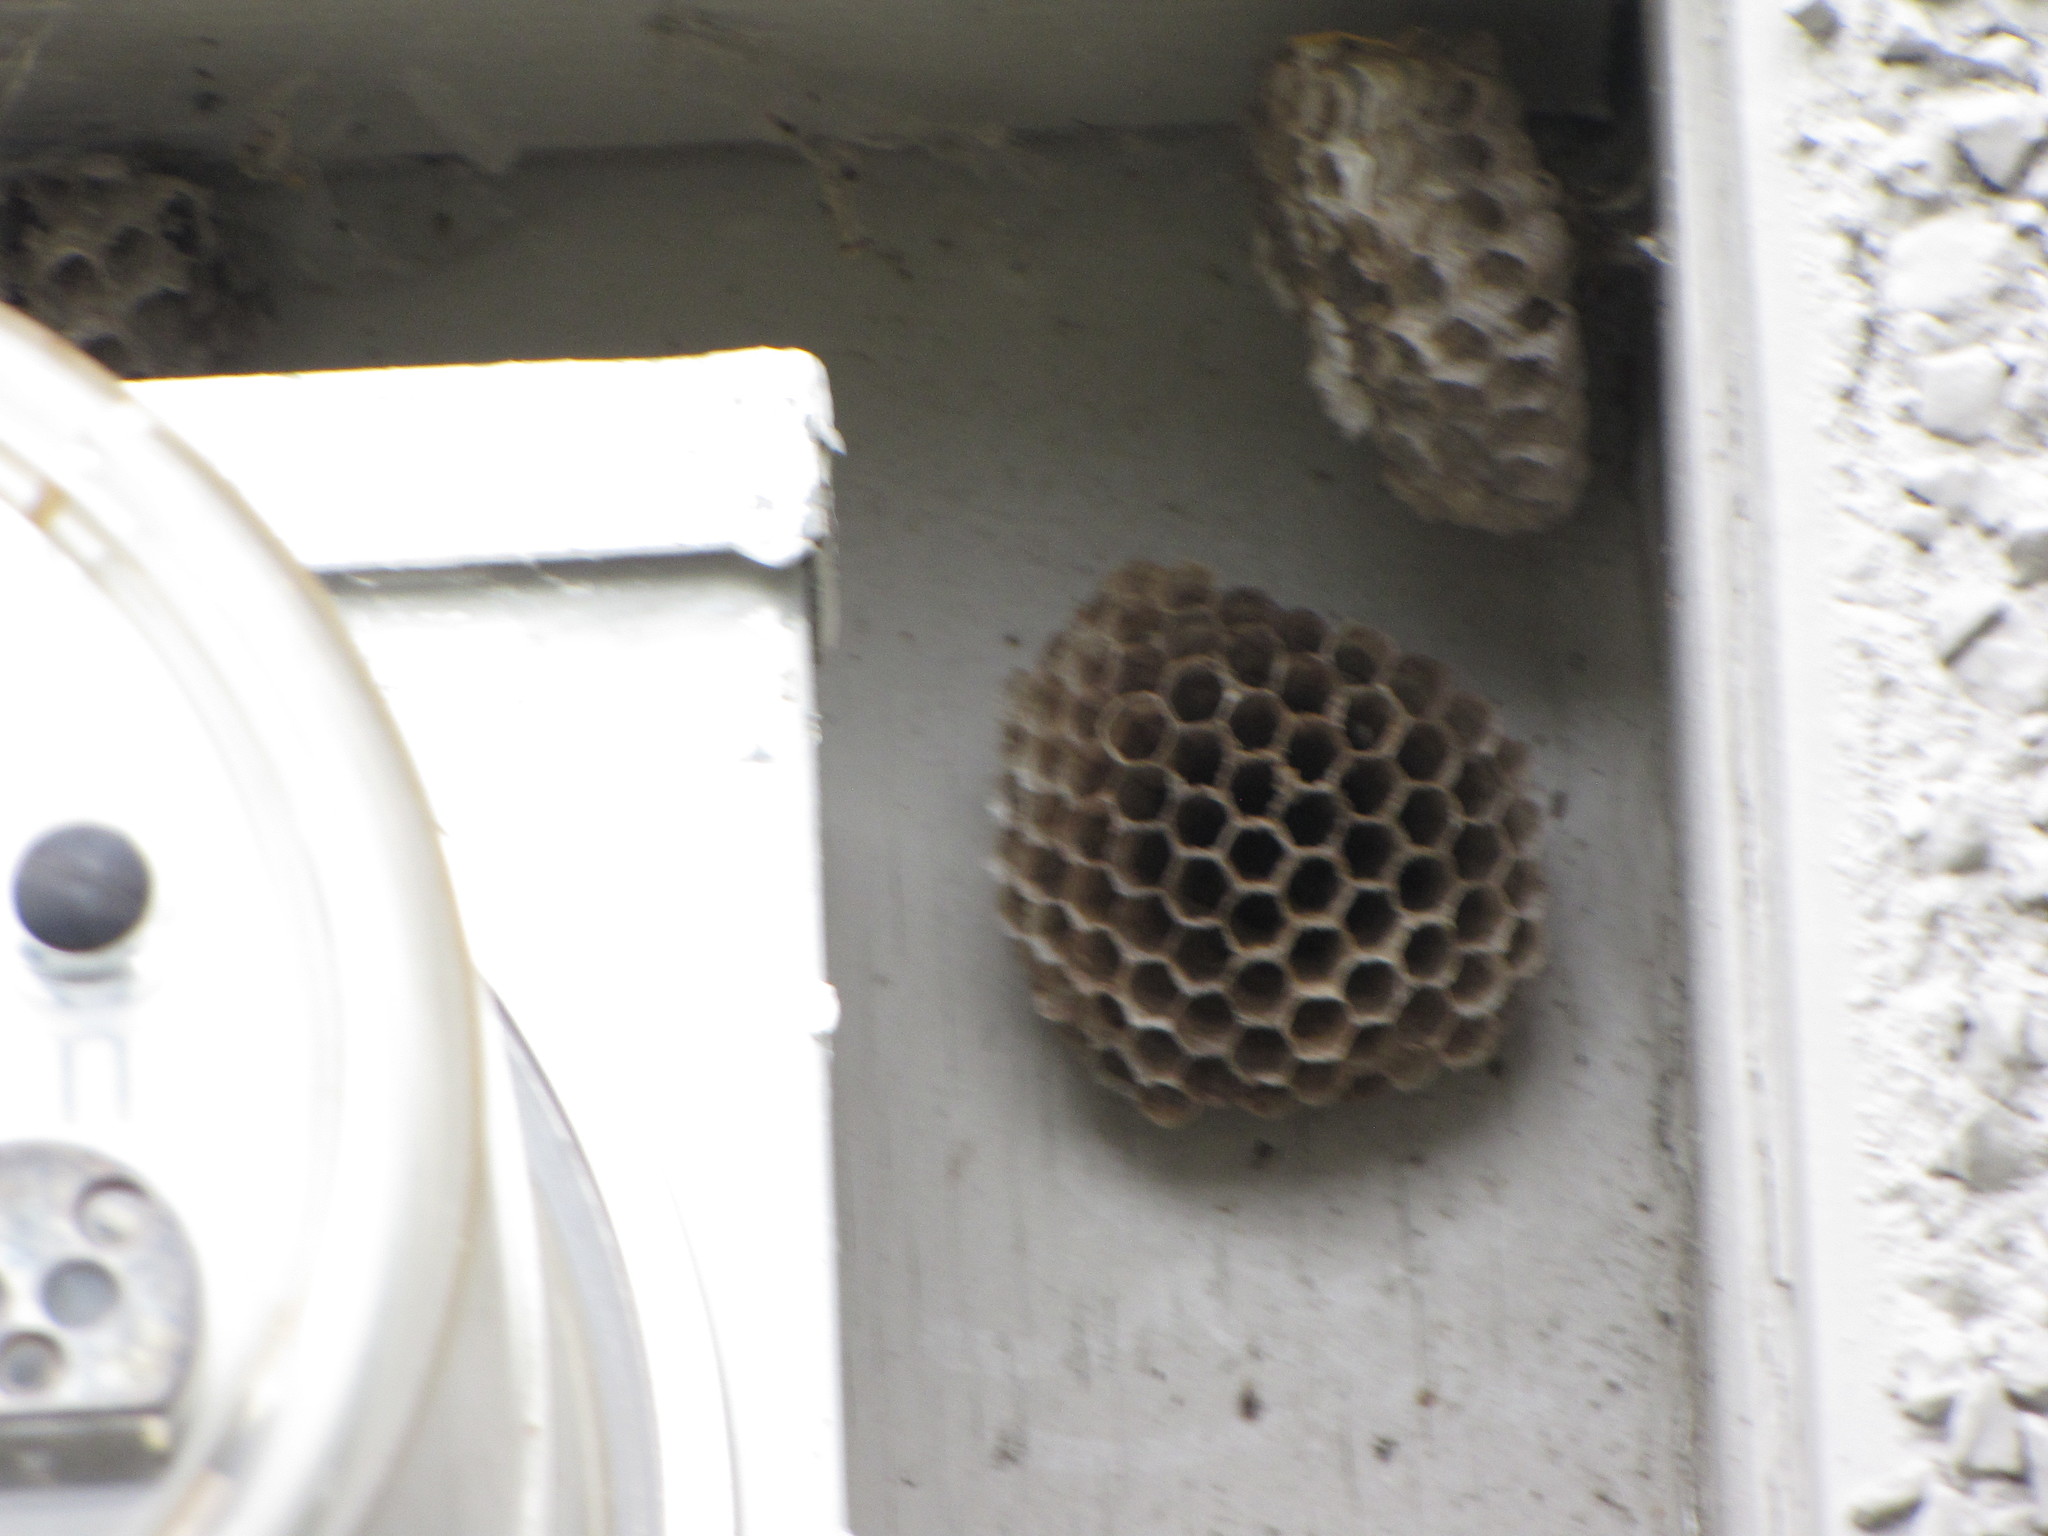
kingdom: Animalia
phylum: Arthropoda
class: Insecta
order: Hymenoptera
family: Vespidae
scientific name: Vespidae
